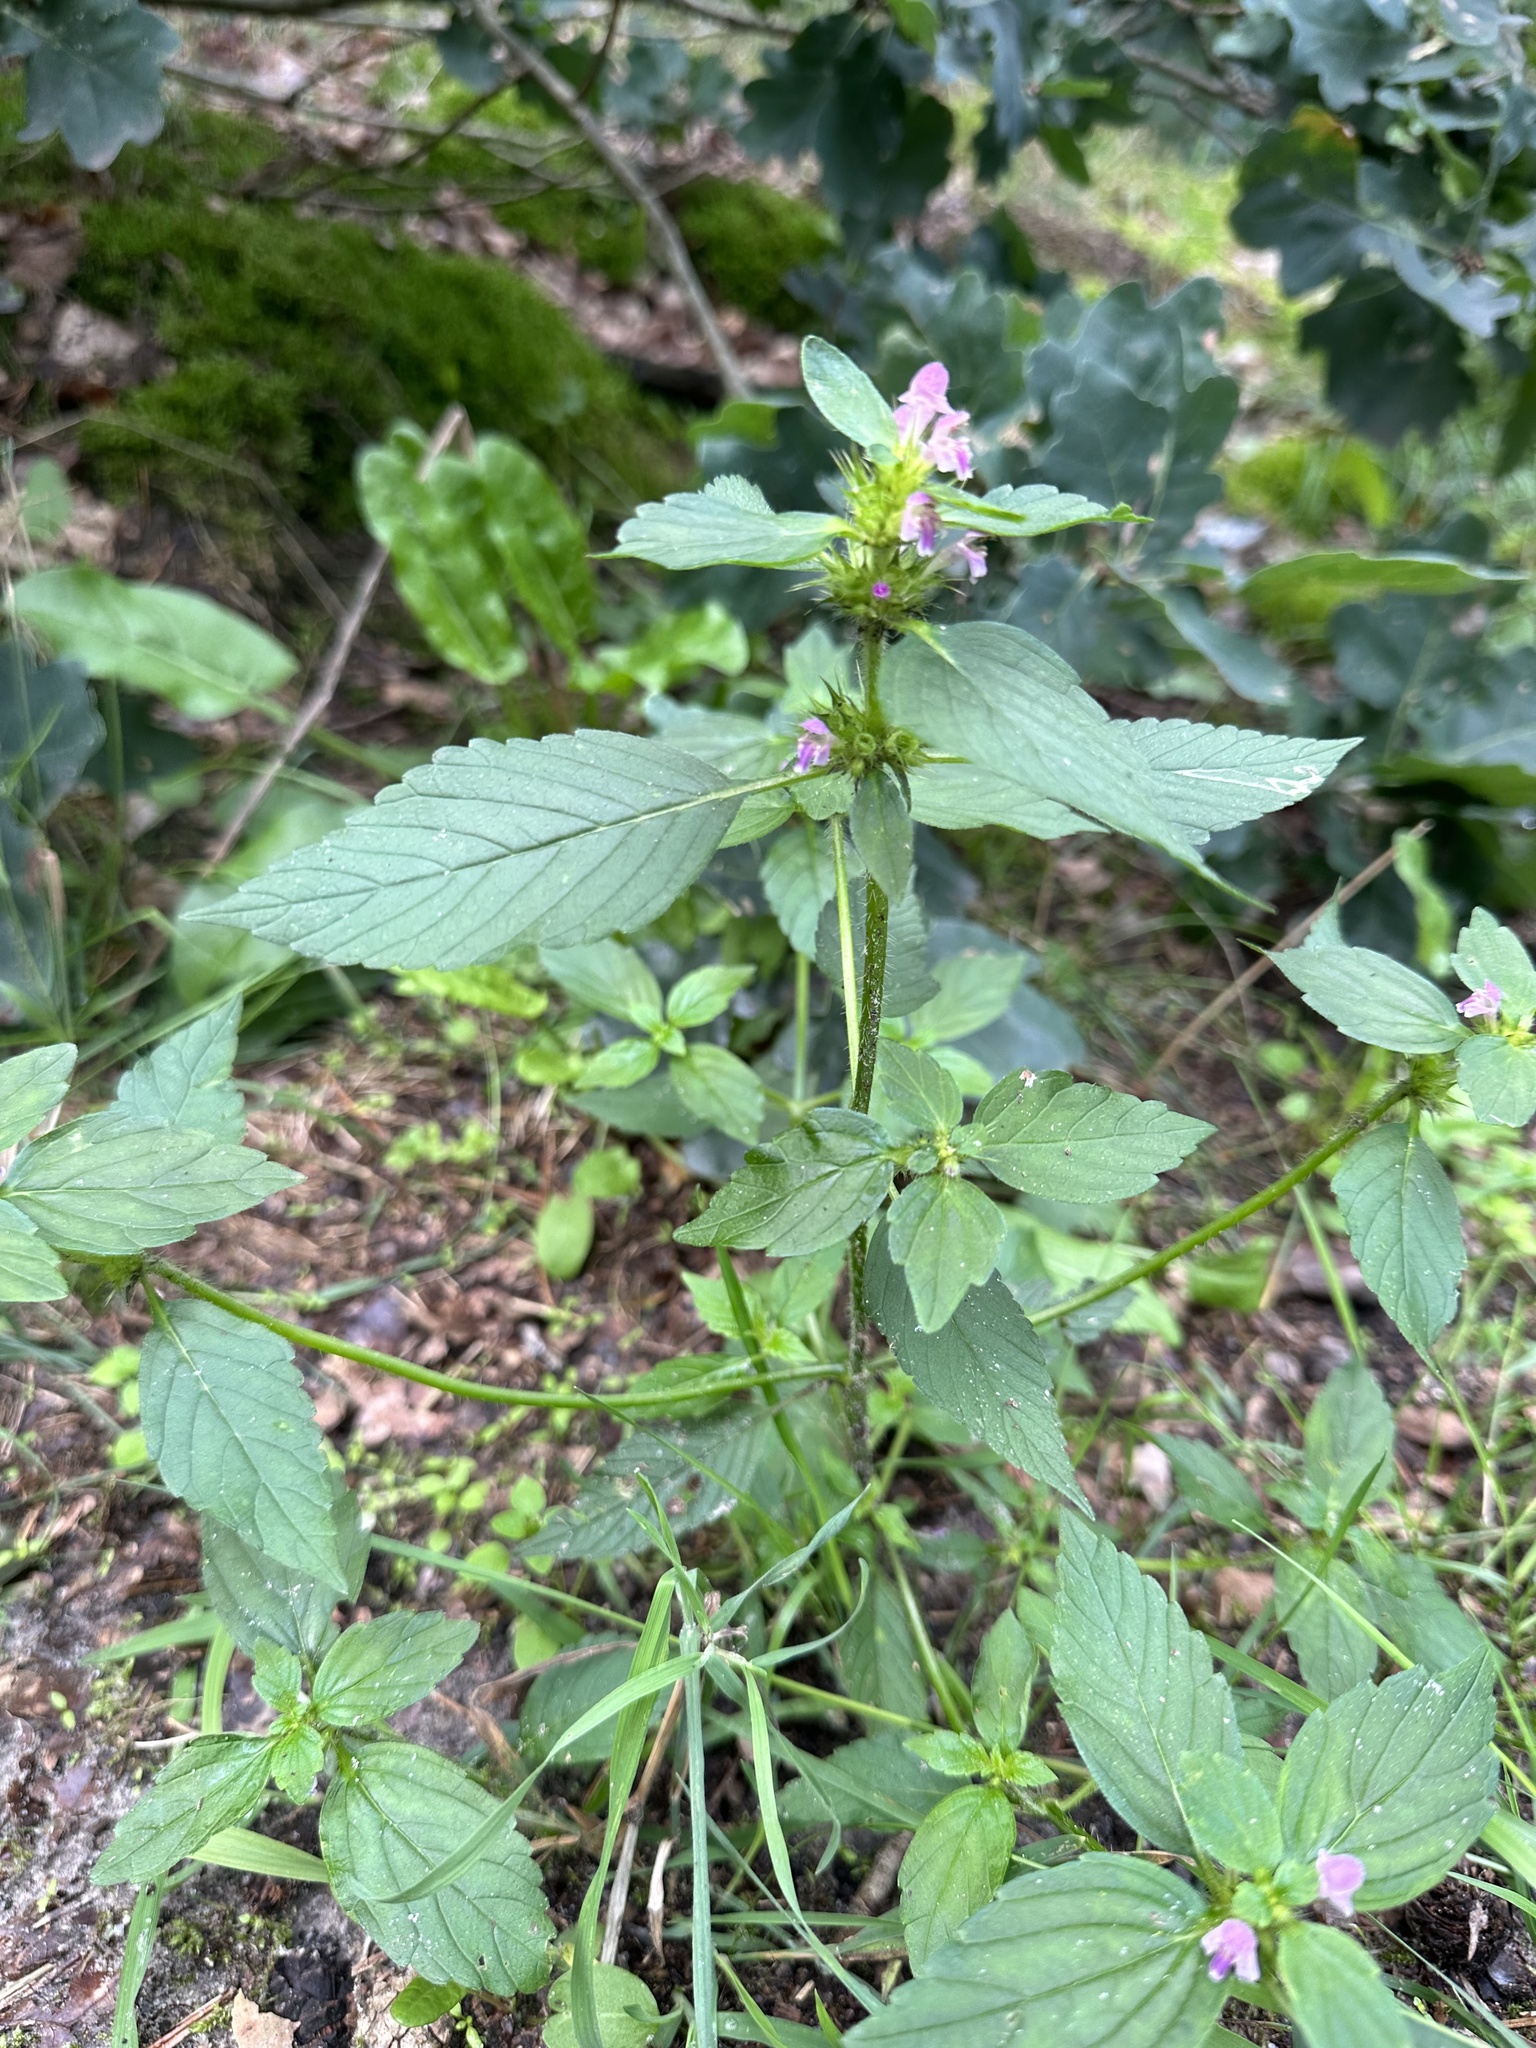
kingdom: Plantae
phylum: Tracheophyta
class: Magnoliopsida
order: Lamiales
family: Lamiaceae
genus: Galeopsis
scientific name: Galeopsis tetrahit
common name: Common hemp-nettle
